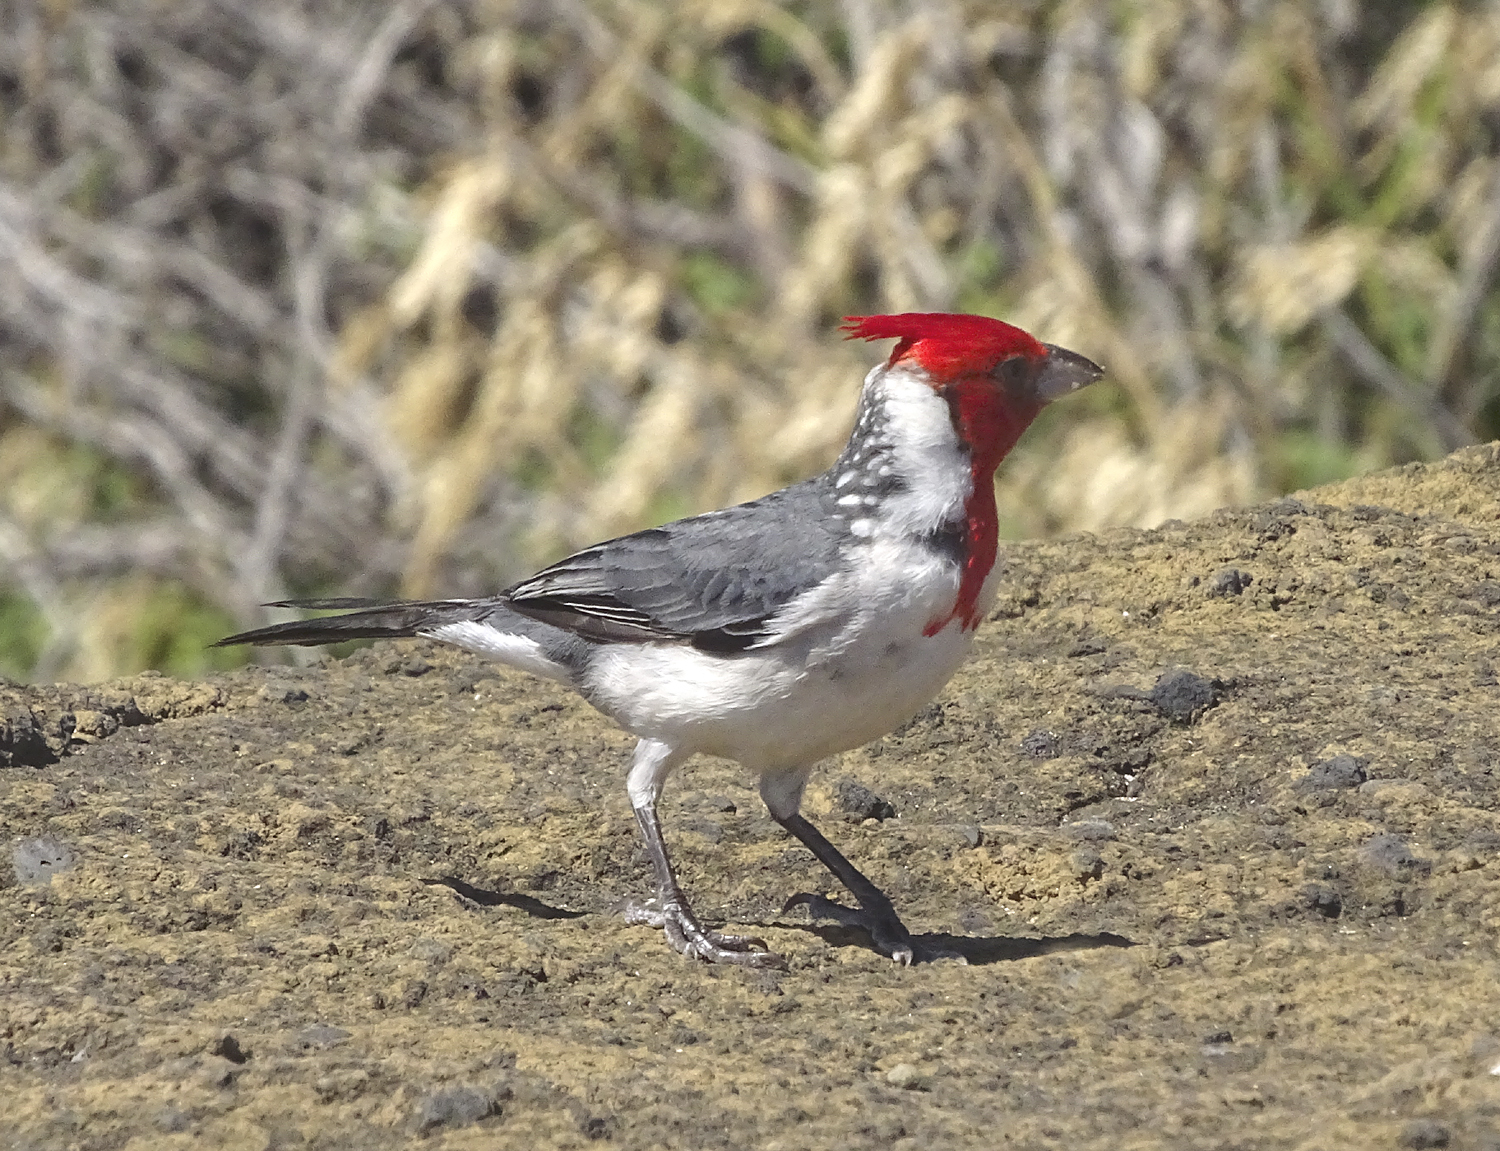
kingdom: Animalia
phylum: Chordata
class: Aves
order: Passeriformes
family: Thraupidae
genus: Paroaria
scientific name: Paroaria coronata
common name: Red-crested cardinal
